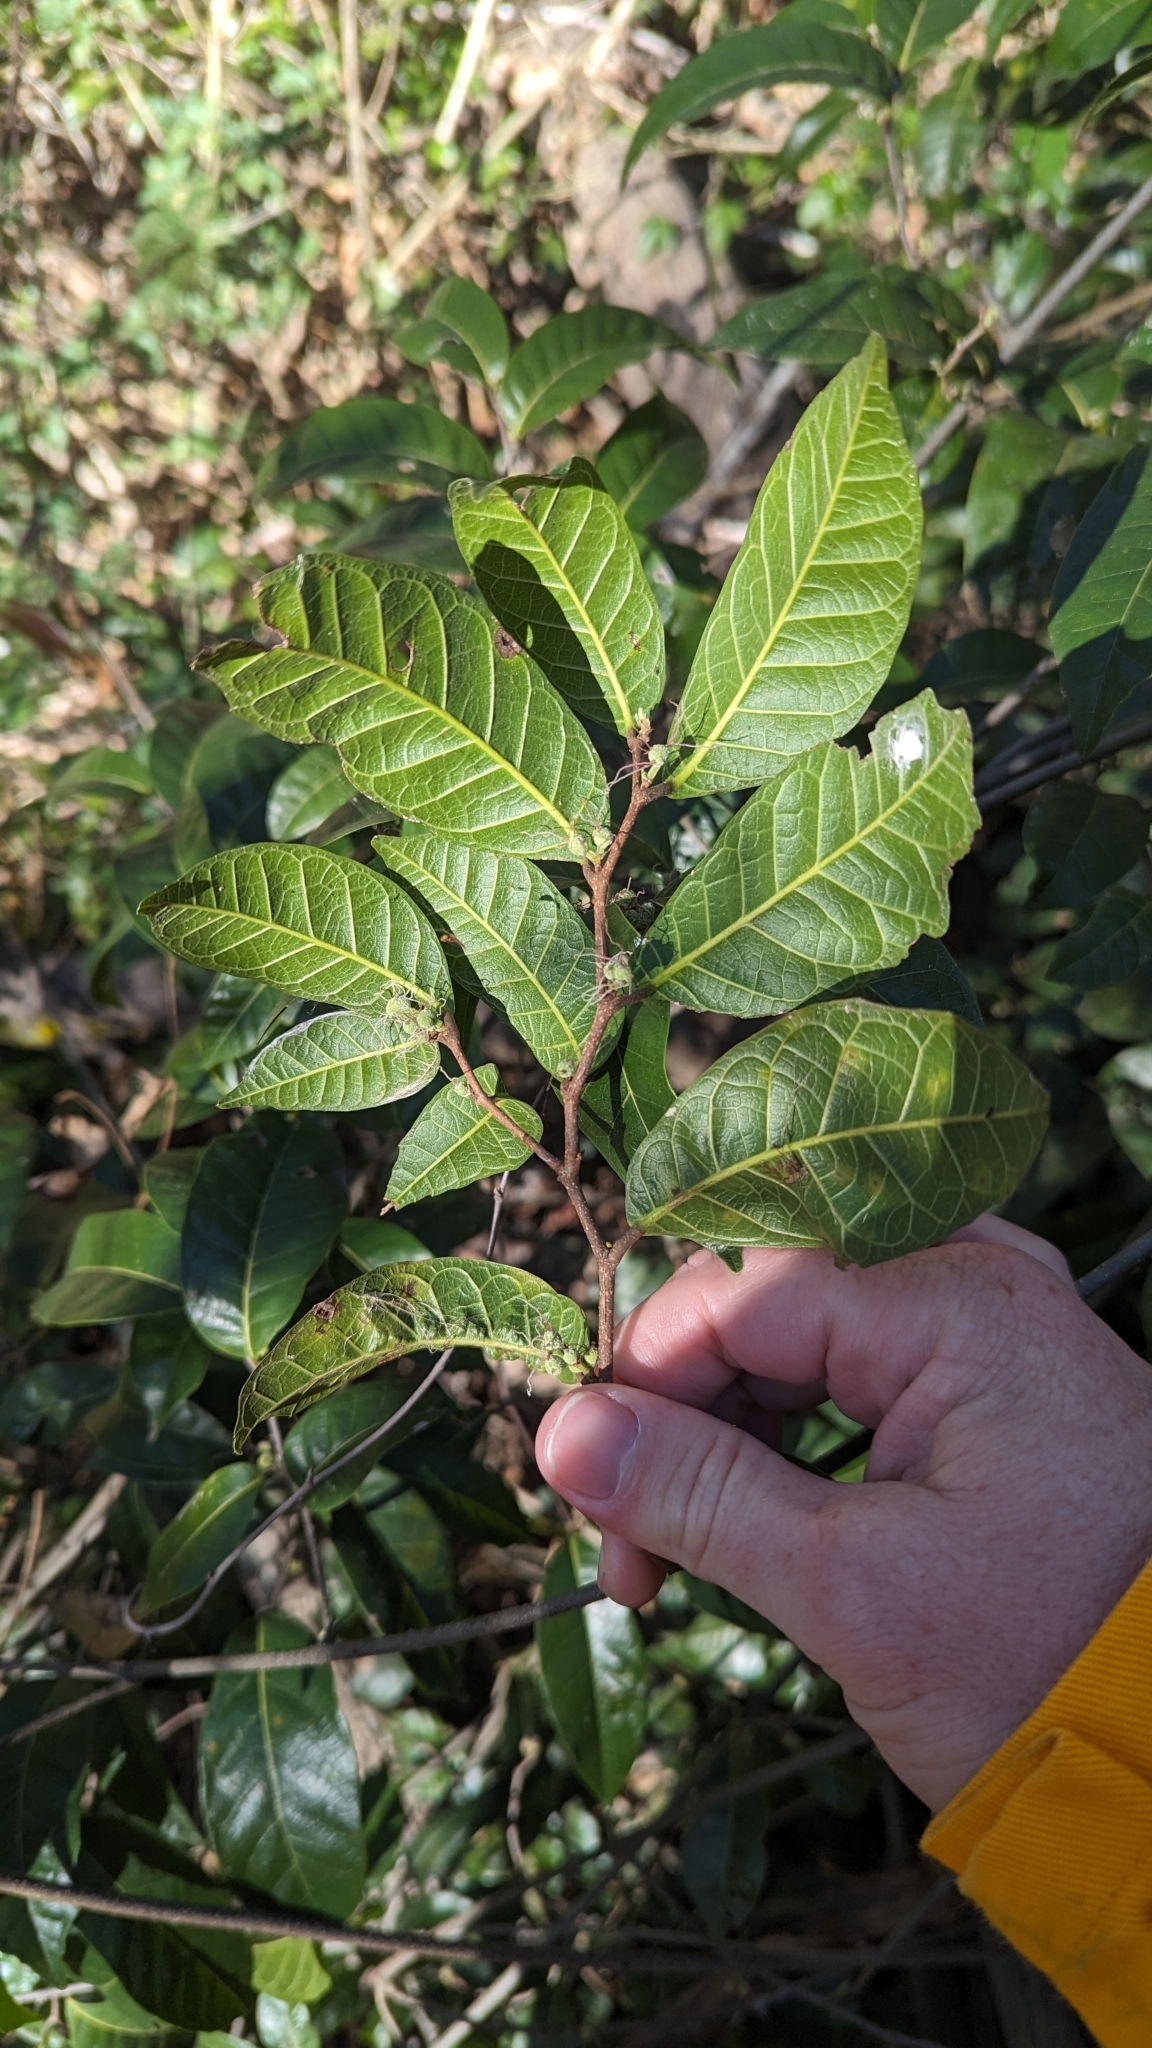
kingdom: Plantae
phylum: Tracheophyta
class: Magnoliopsida
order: Rosales
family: Moraceae
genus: Malaisia
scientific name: Malaisia scandens
